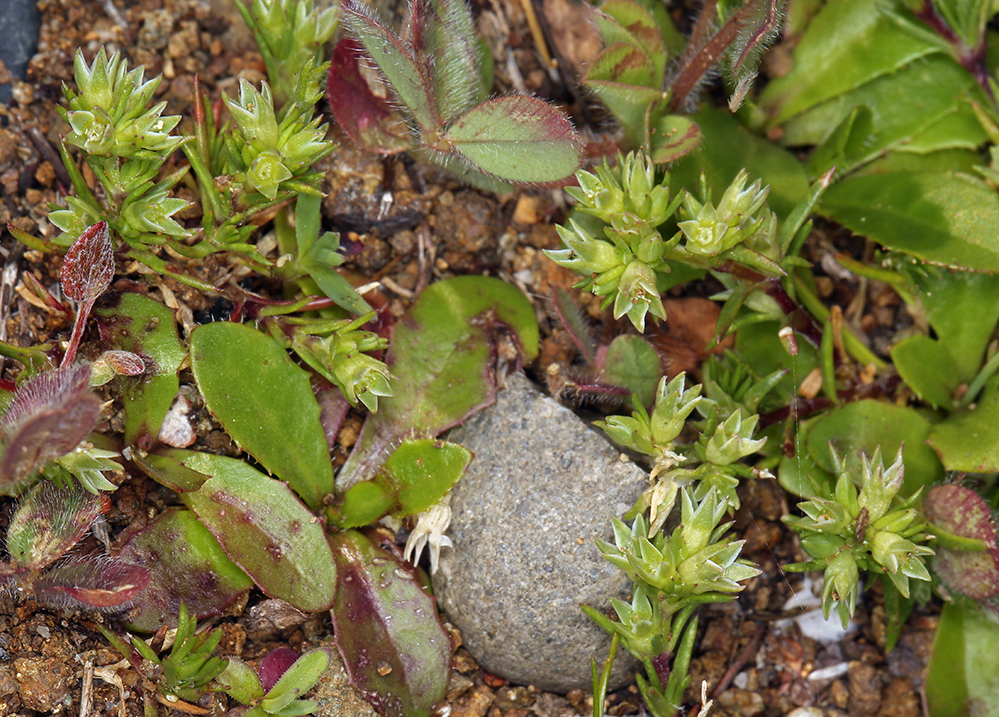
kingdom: Plantae
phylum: Tracheophyta
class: Magnoliopsida
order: Caryophyllales
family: Caryophyllaceae
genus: Scleranthus
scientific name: Scleranthus annuus
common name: Annual knawel
